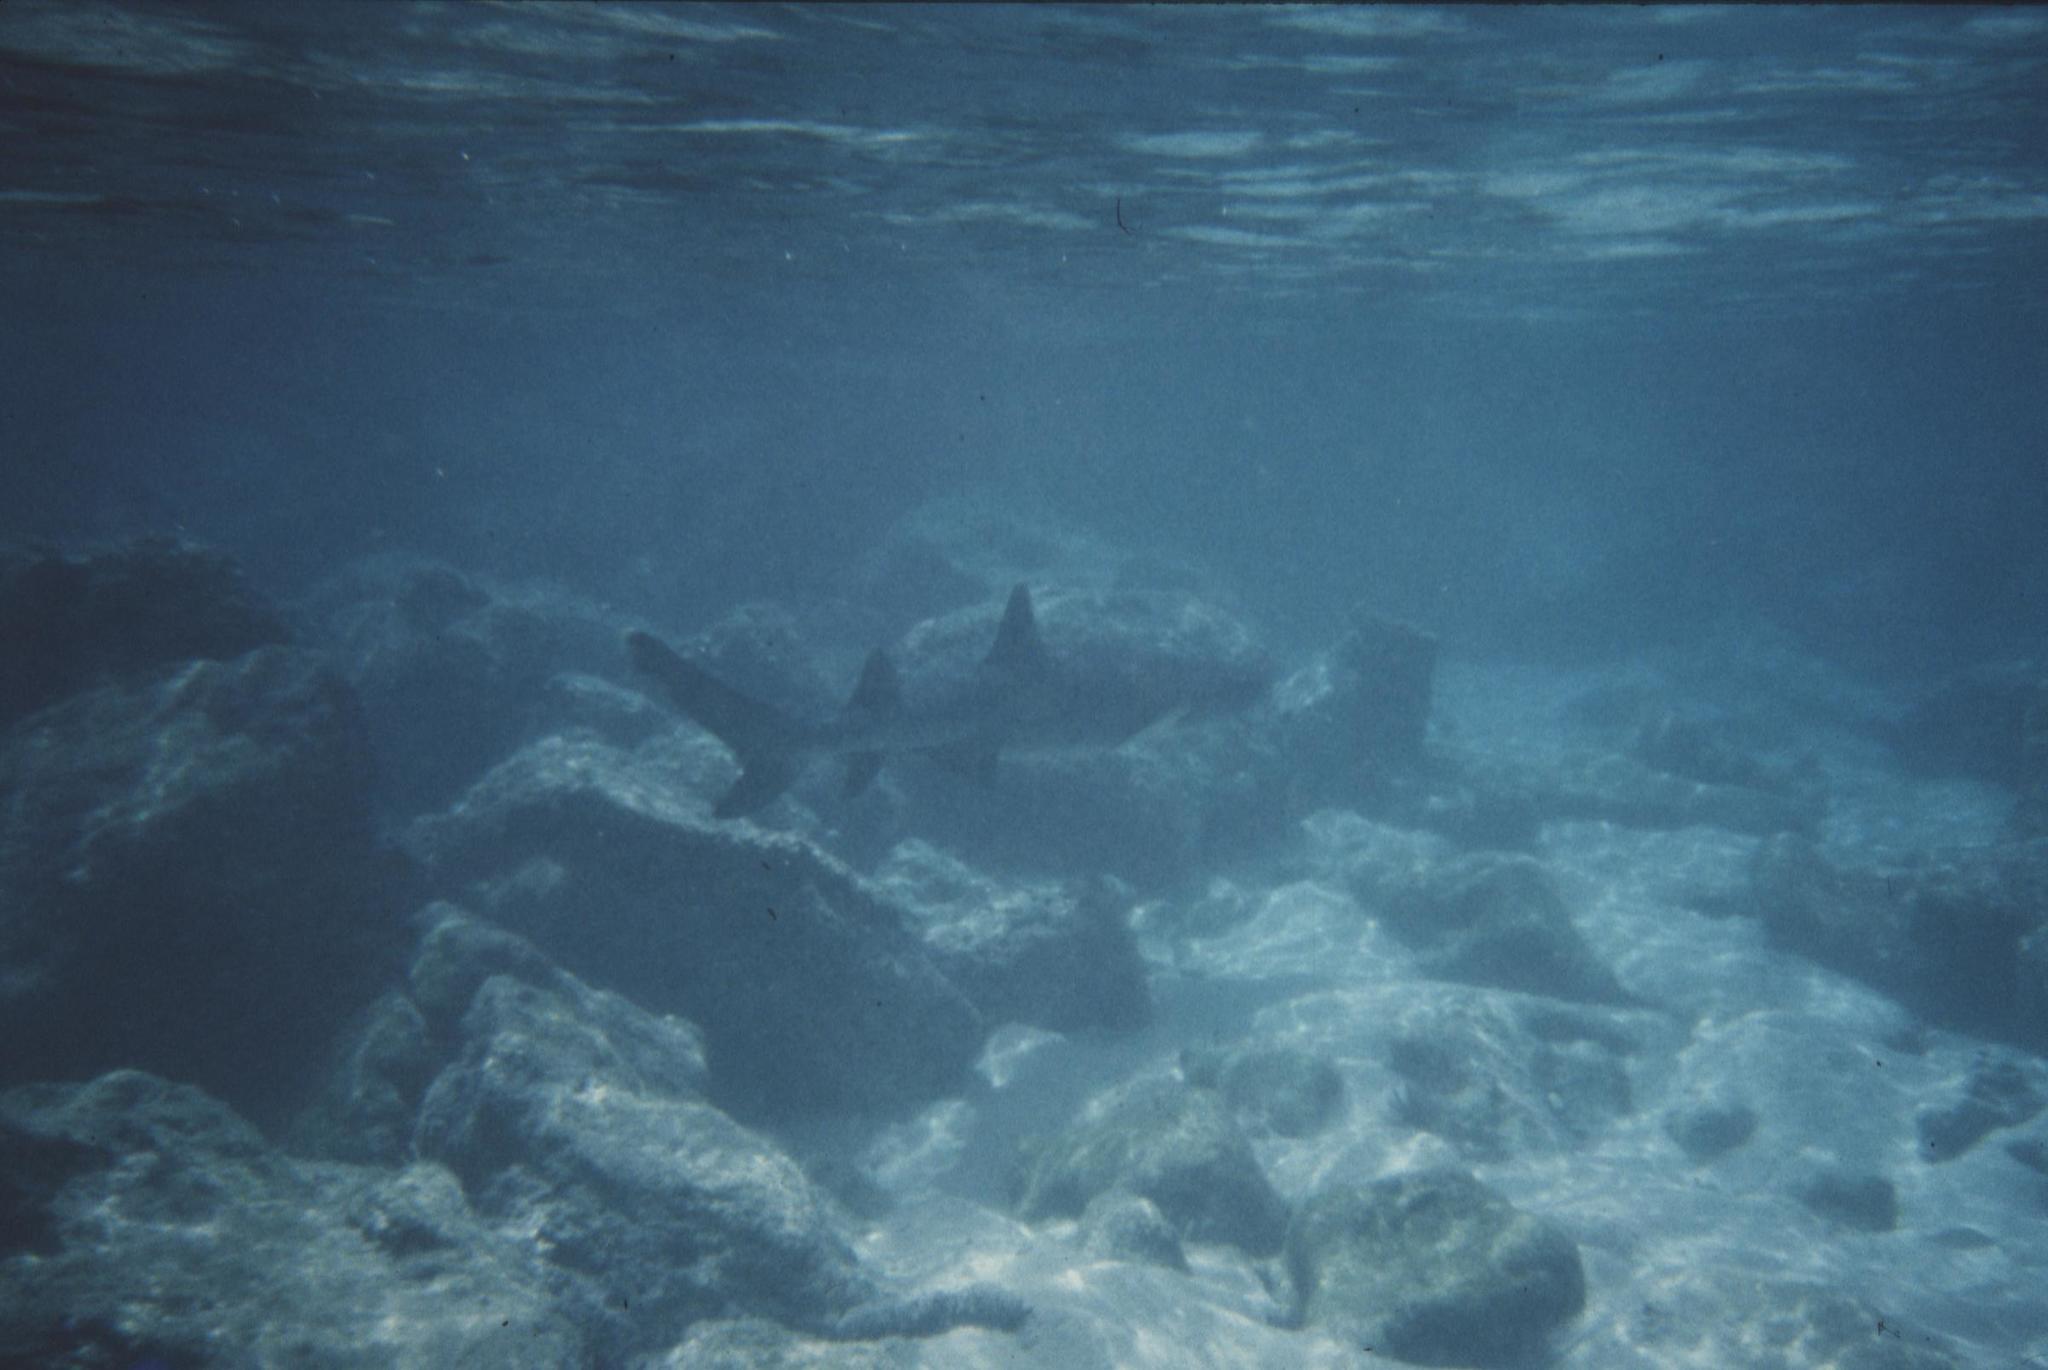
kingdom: Animalia
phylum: Chordata
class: Elasmobranchii
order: Carcharhiniformes
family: Carcharhinidae
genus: Triaenodon
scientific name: Triaenodon obesus
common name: Whitetip reef shark
